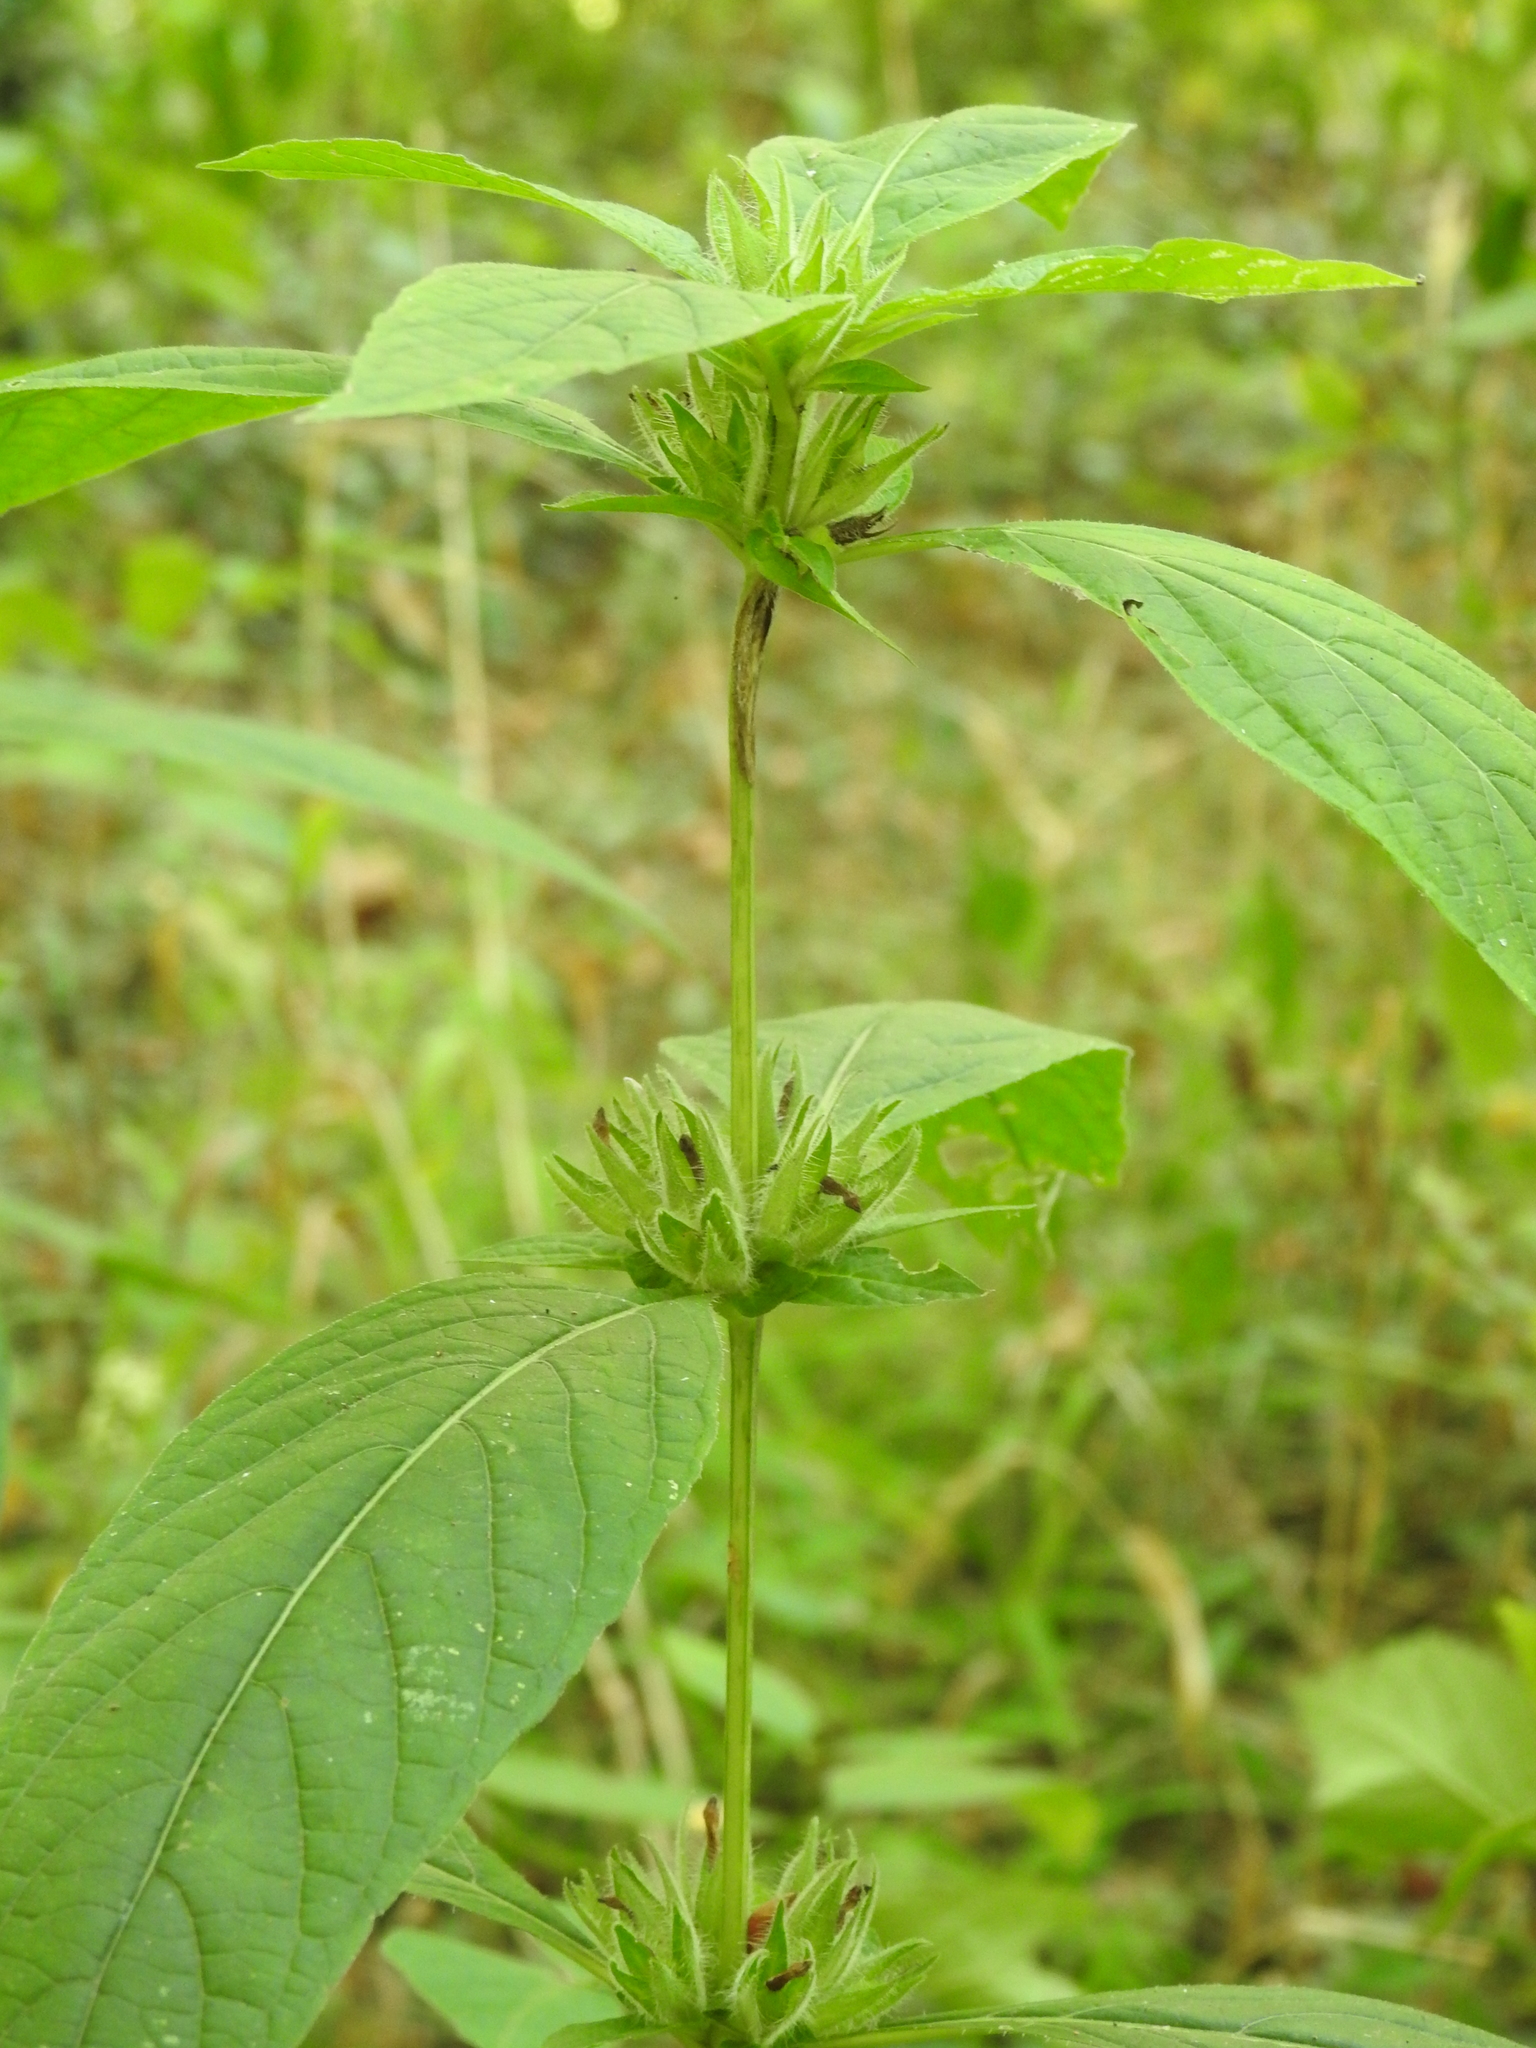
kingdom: Plantae
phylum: Tracheophyta
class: Magnoliopsida
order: Lamiales
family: Acanthaceae
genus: Ruellia
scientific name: Ruellia strepens
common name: Limestone wild petunia
